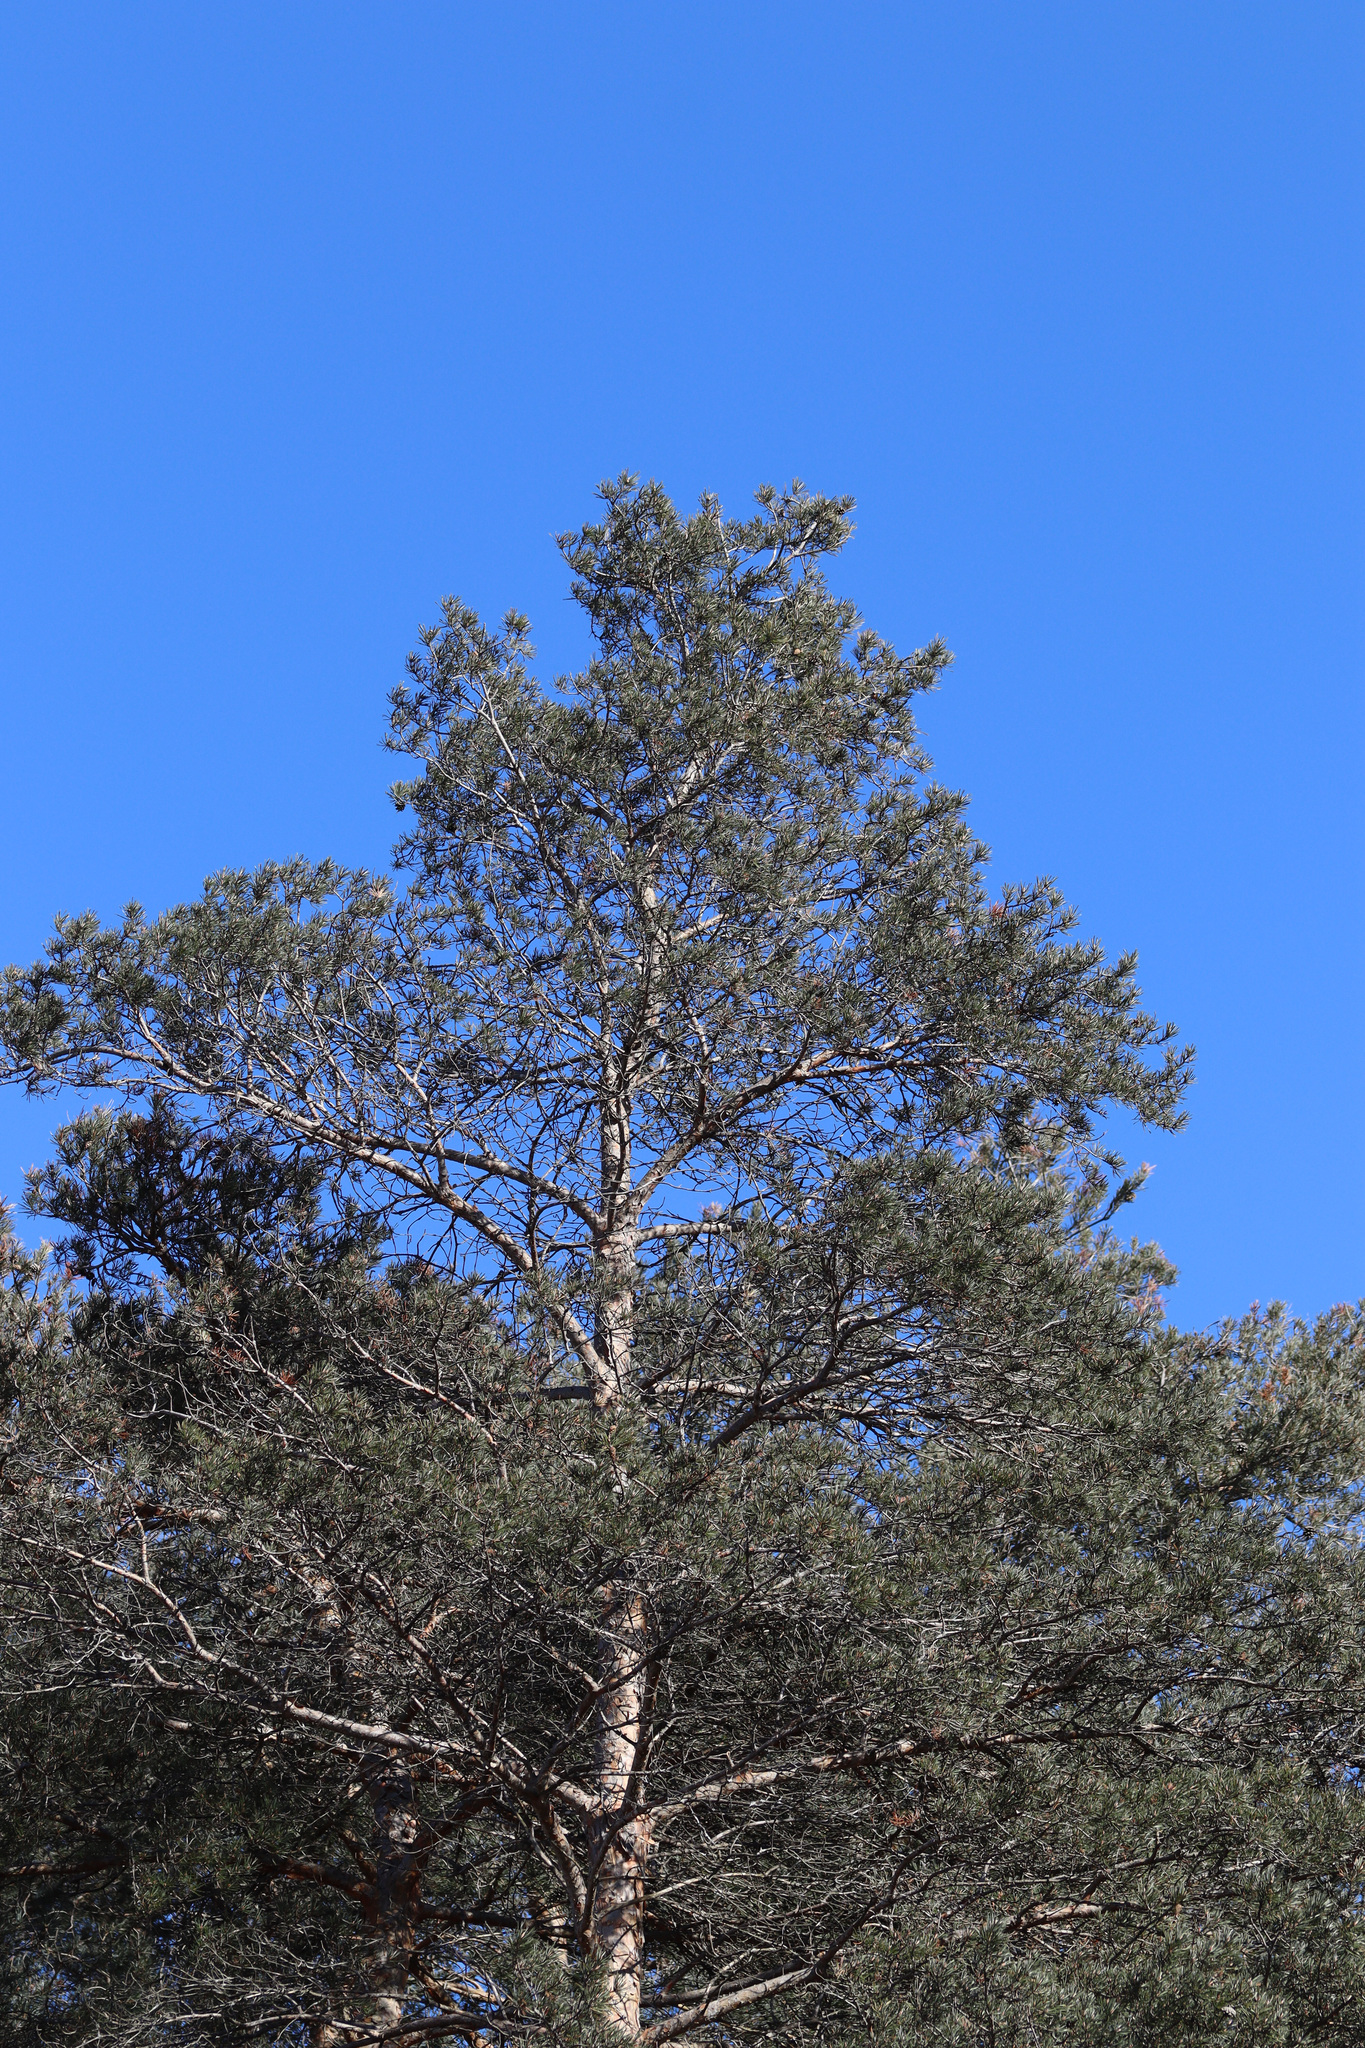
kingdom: Plantae
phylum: Tracheophyta
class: Pinopsida
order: Pinales
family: Pinaceae
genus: Pinus
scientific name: Pinus sylvestris
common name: Scots pine
